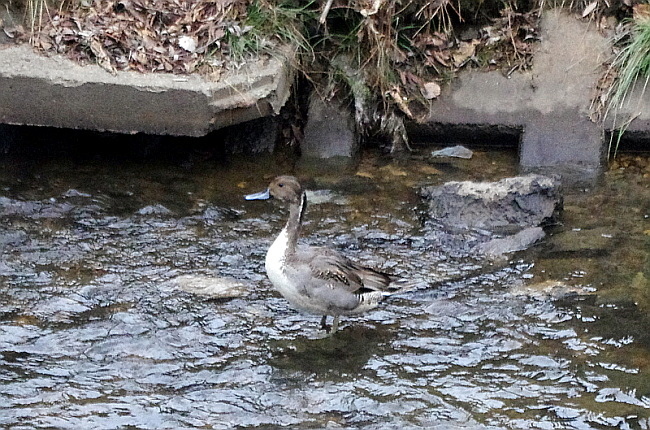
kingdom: Animalia
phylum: Chordata
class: Aves
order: Anseriformes
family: Anatidae
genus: Anas
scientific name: Anas acuta
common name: Northern pintail
